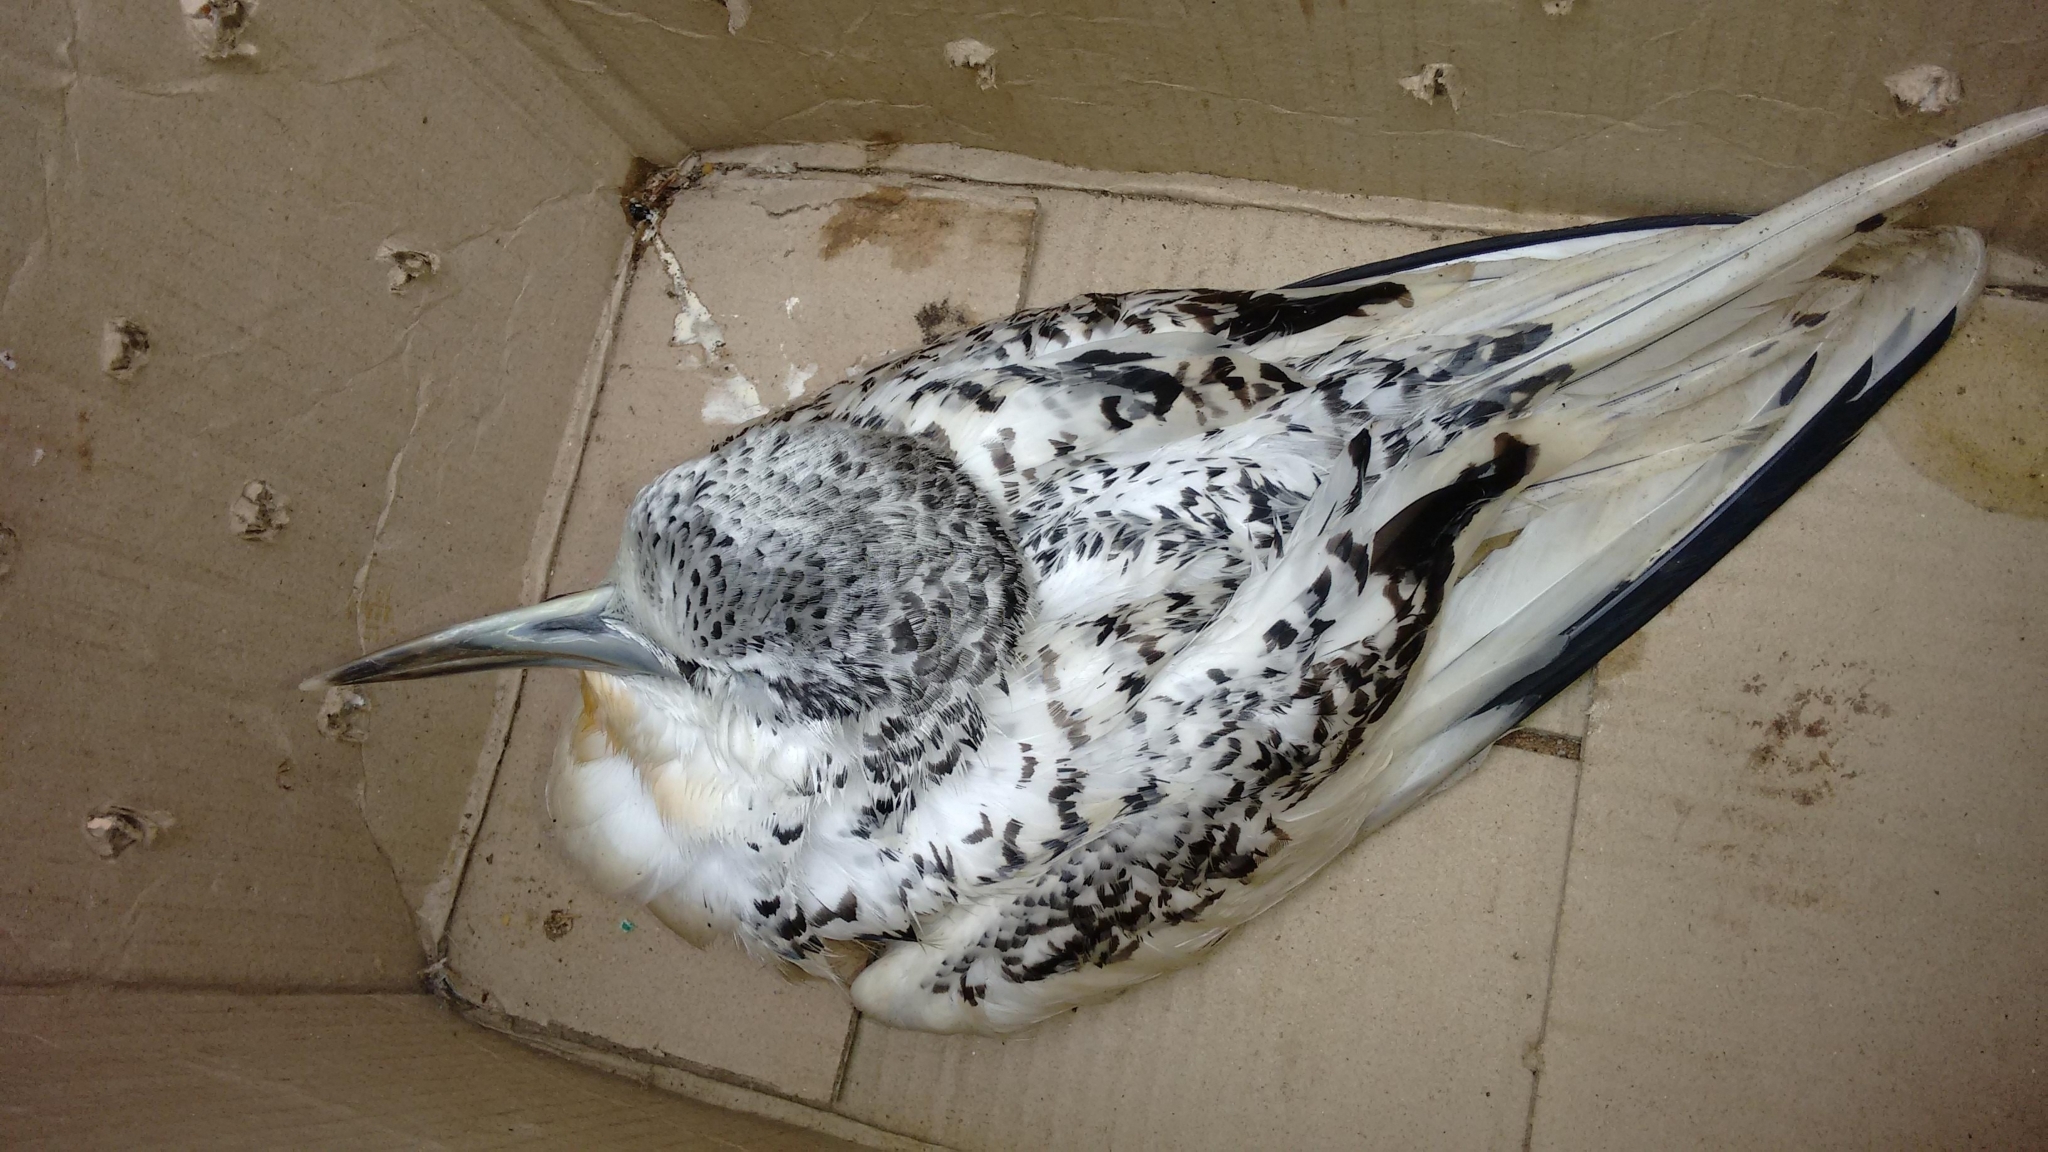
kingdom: Animalia
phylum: Chordata
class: Aves
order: Phaethontiformes
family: Phaethontidae
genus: Phaethon
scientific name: Phaethon lepturus
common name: White-tailed tropicbird
